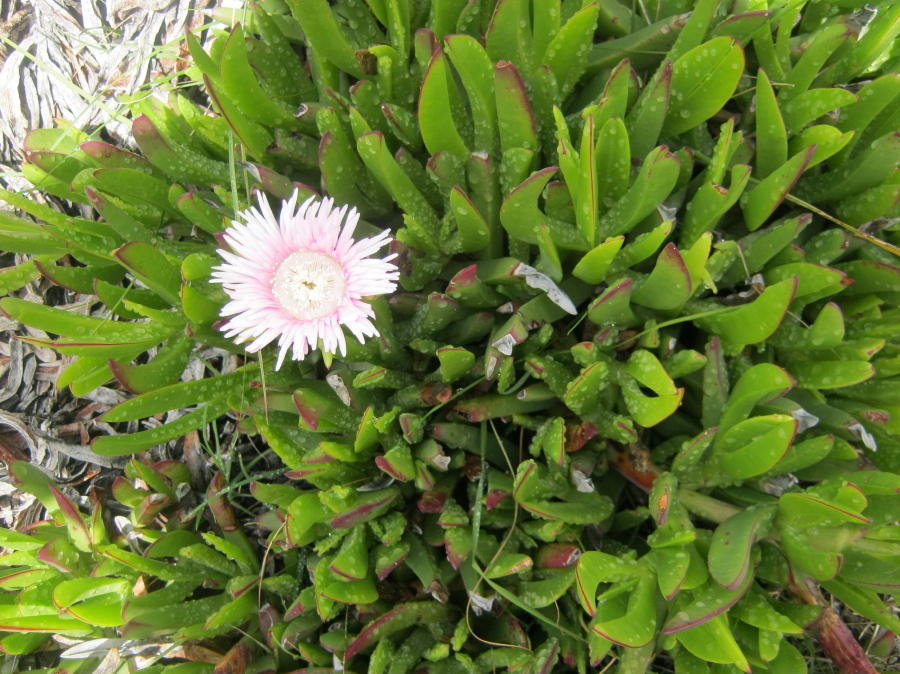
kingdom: Plantae
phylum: Tracheophyta
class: Magnoliopsida
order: Caryophyllales
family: Aizoaceae
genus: Carpobrotus
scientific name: Carpobrotus deliciosus
